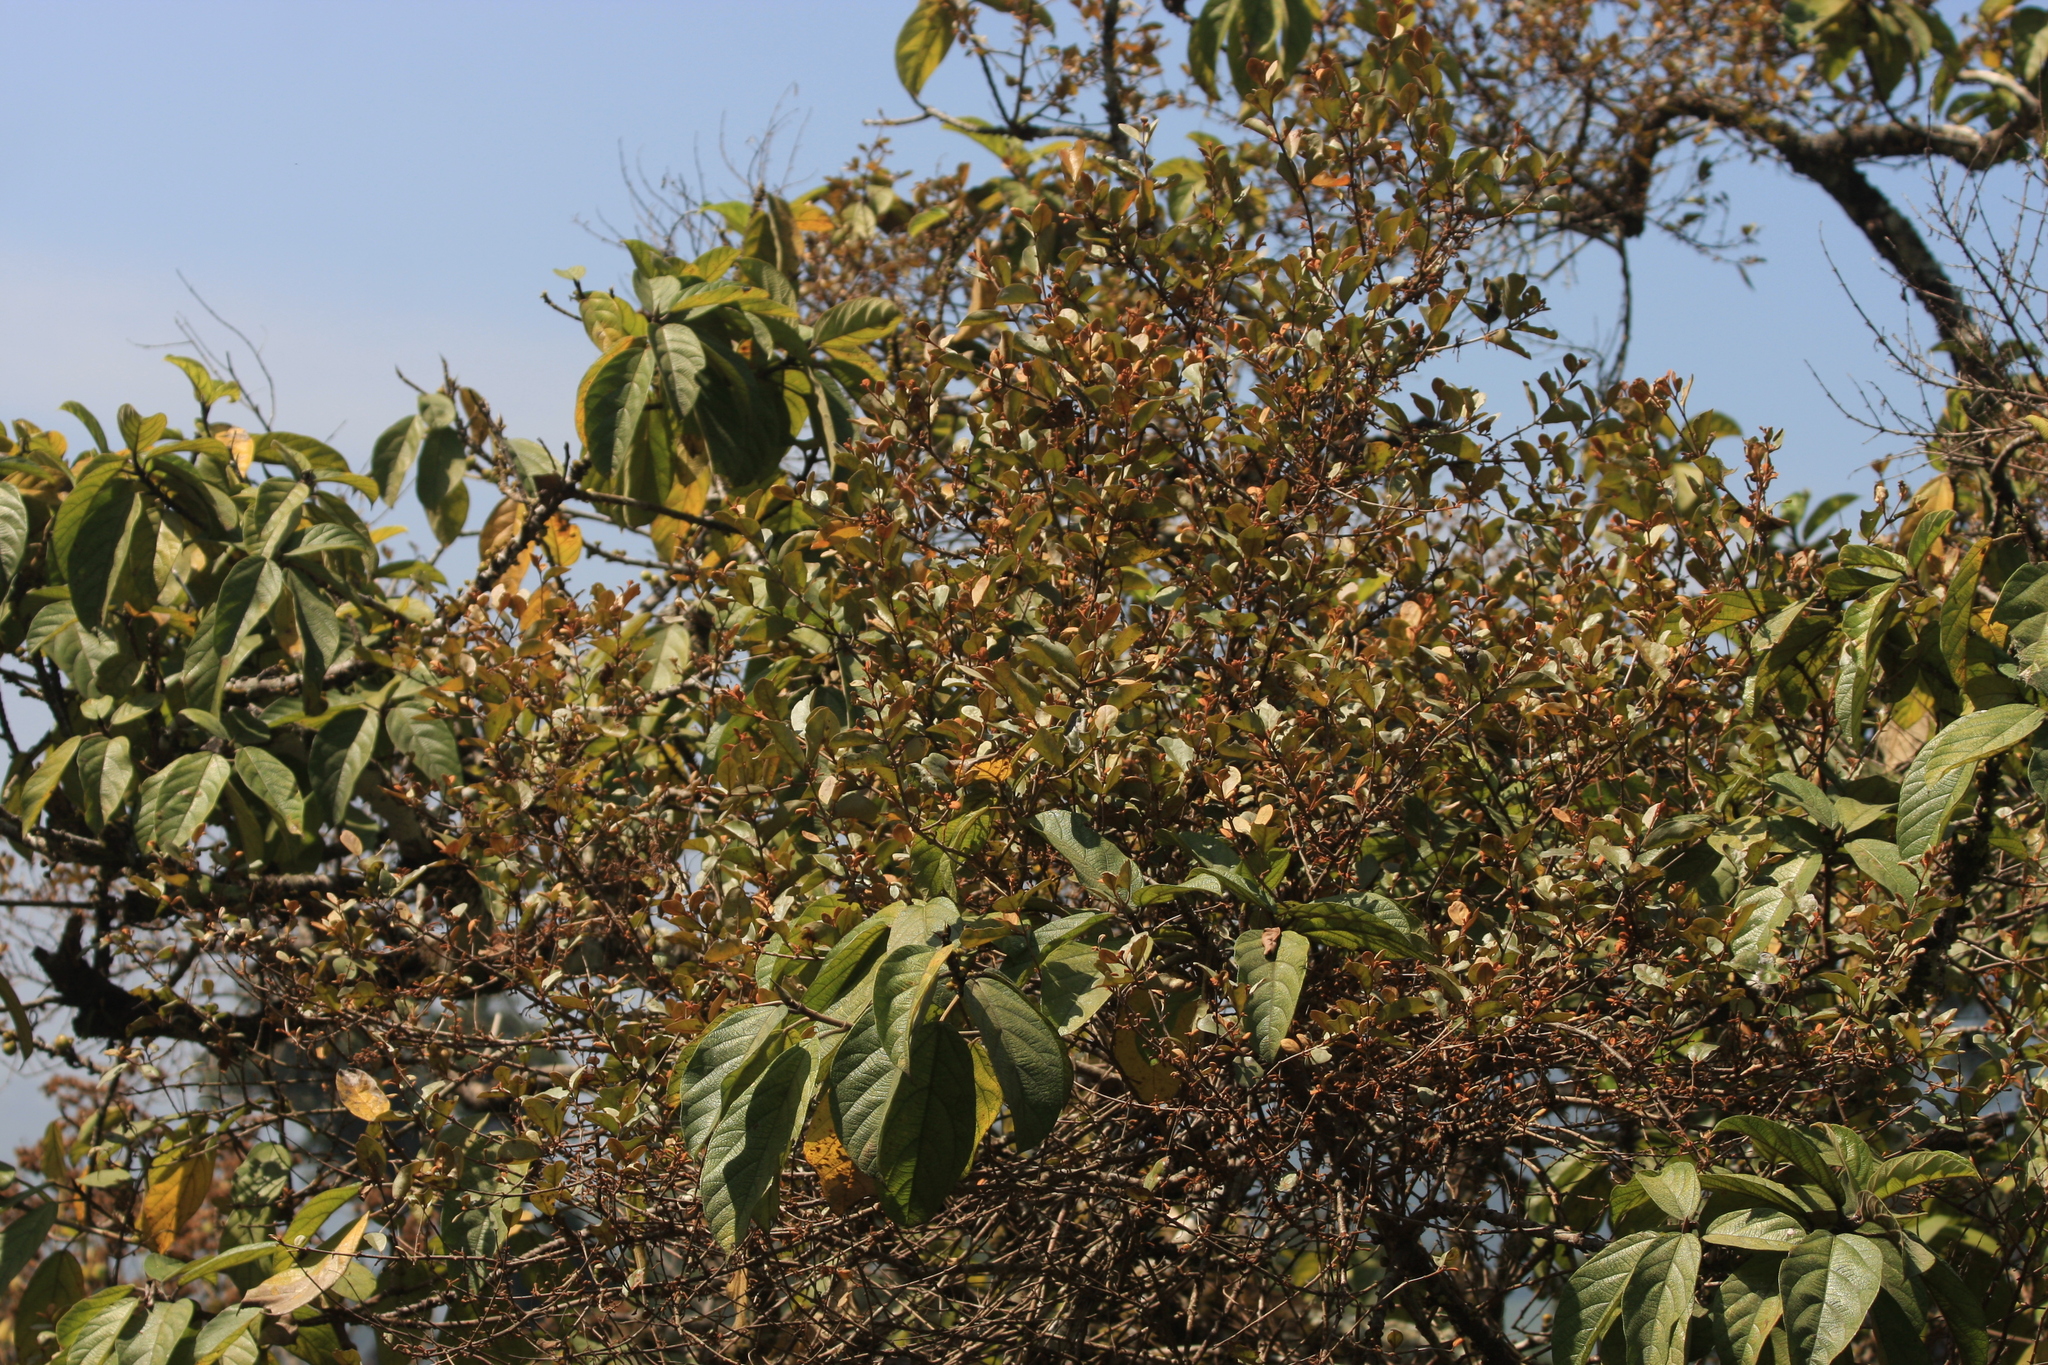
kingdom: Plantae
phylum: Tracheophyta
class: Magnoliopsida
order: Santalales
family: Loranthaceae
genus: Scurrula
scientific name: Scurrula parasitica
